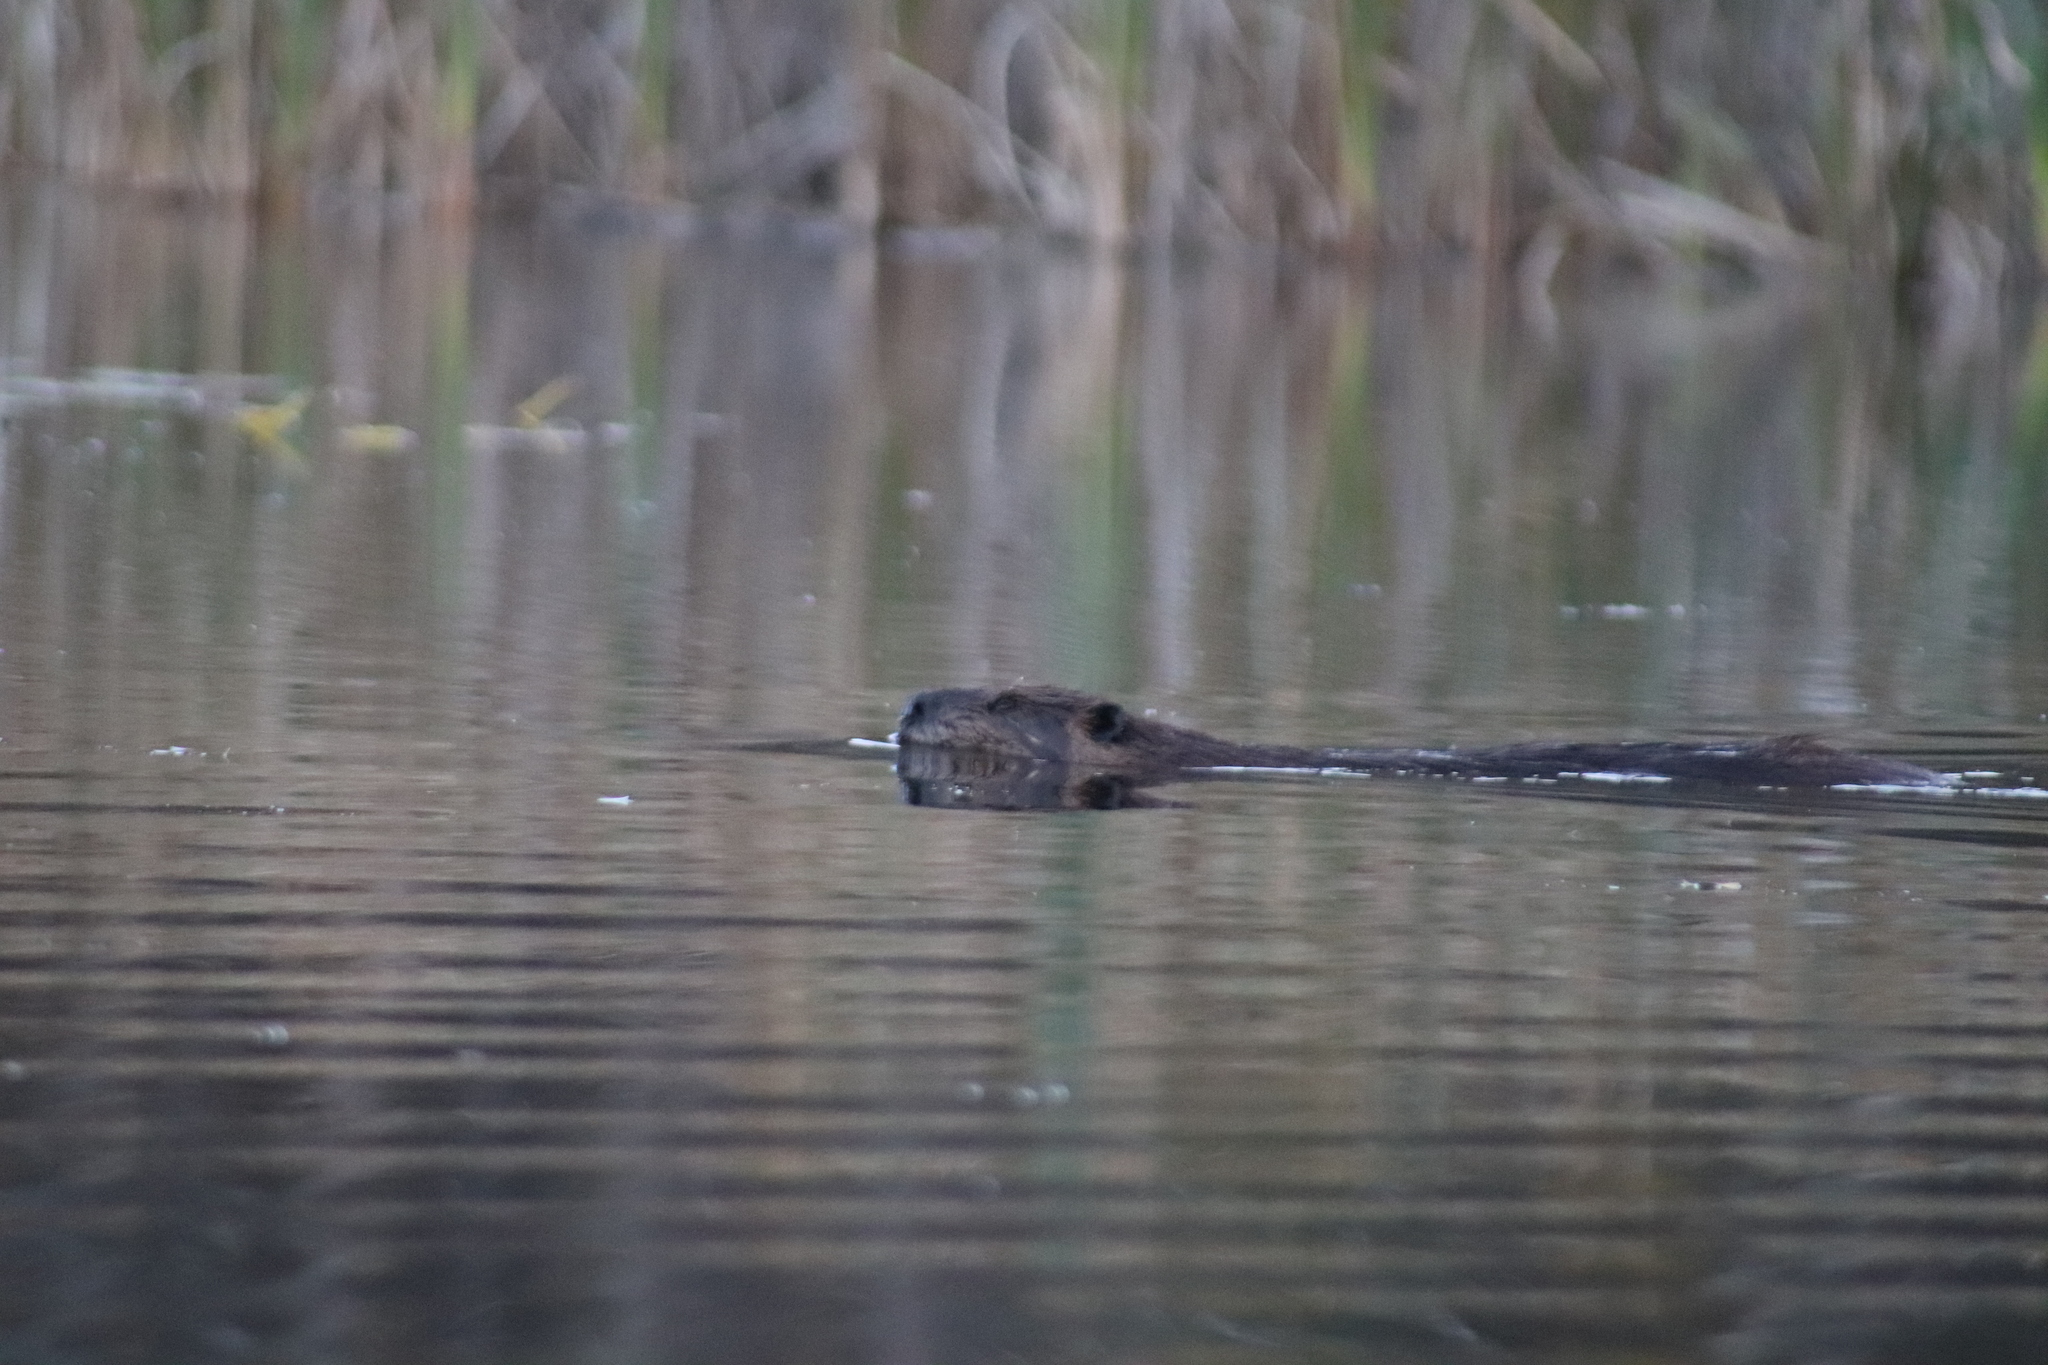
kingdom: Animalia
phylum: Chordata
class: Mammalia
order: Rodentia
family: Castoridae
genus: Castor
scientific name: Castor canadensis
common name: American beaver
